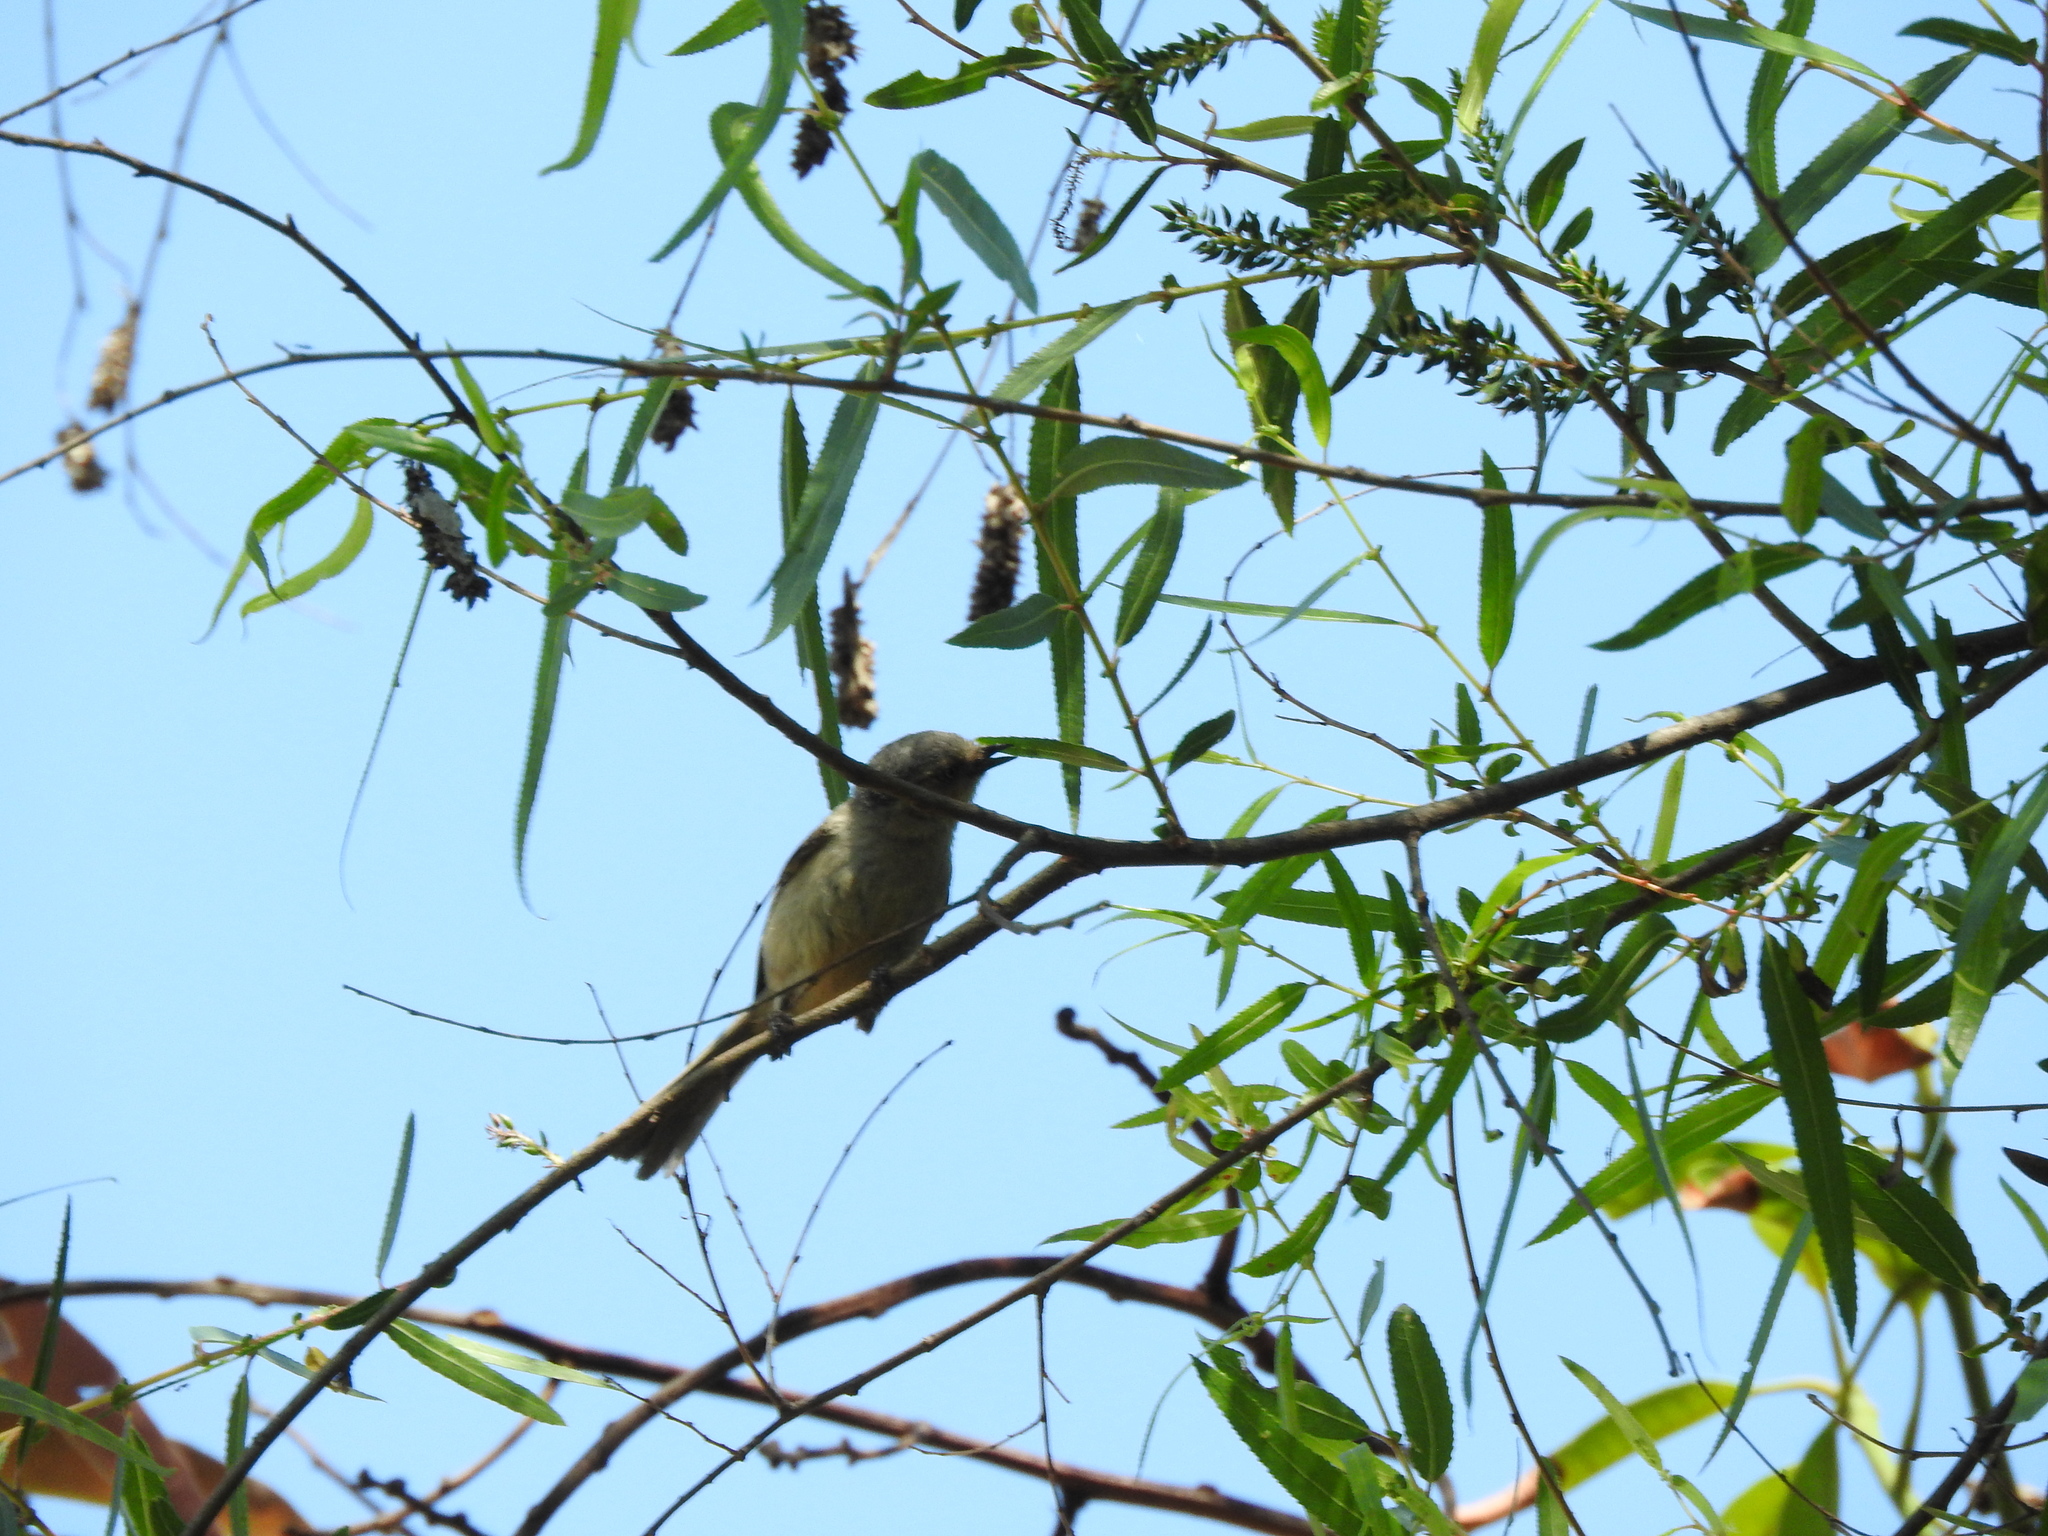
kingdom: Animalia
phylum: Chordata
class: Aves
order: Passeriformes
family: Aegithalidae
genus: Psaltriparus
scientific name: Psaltriparus minimus
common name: American bushtit
